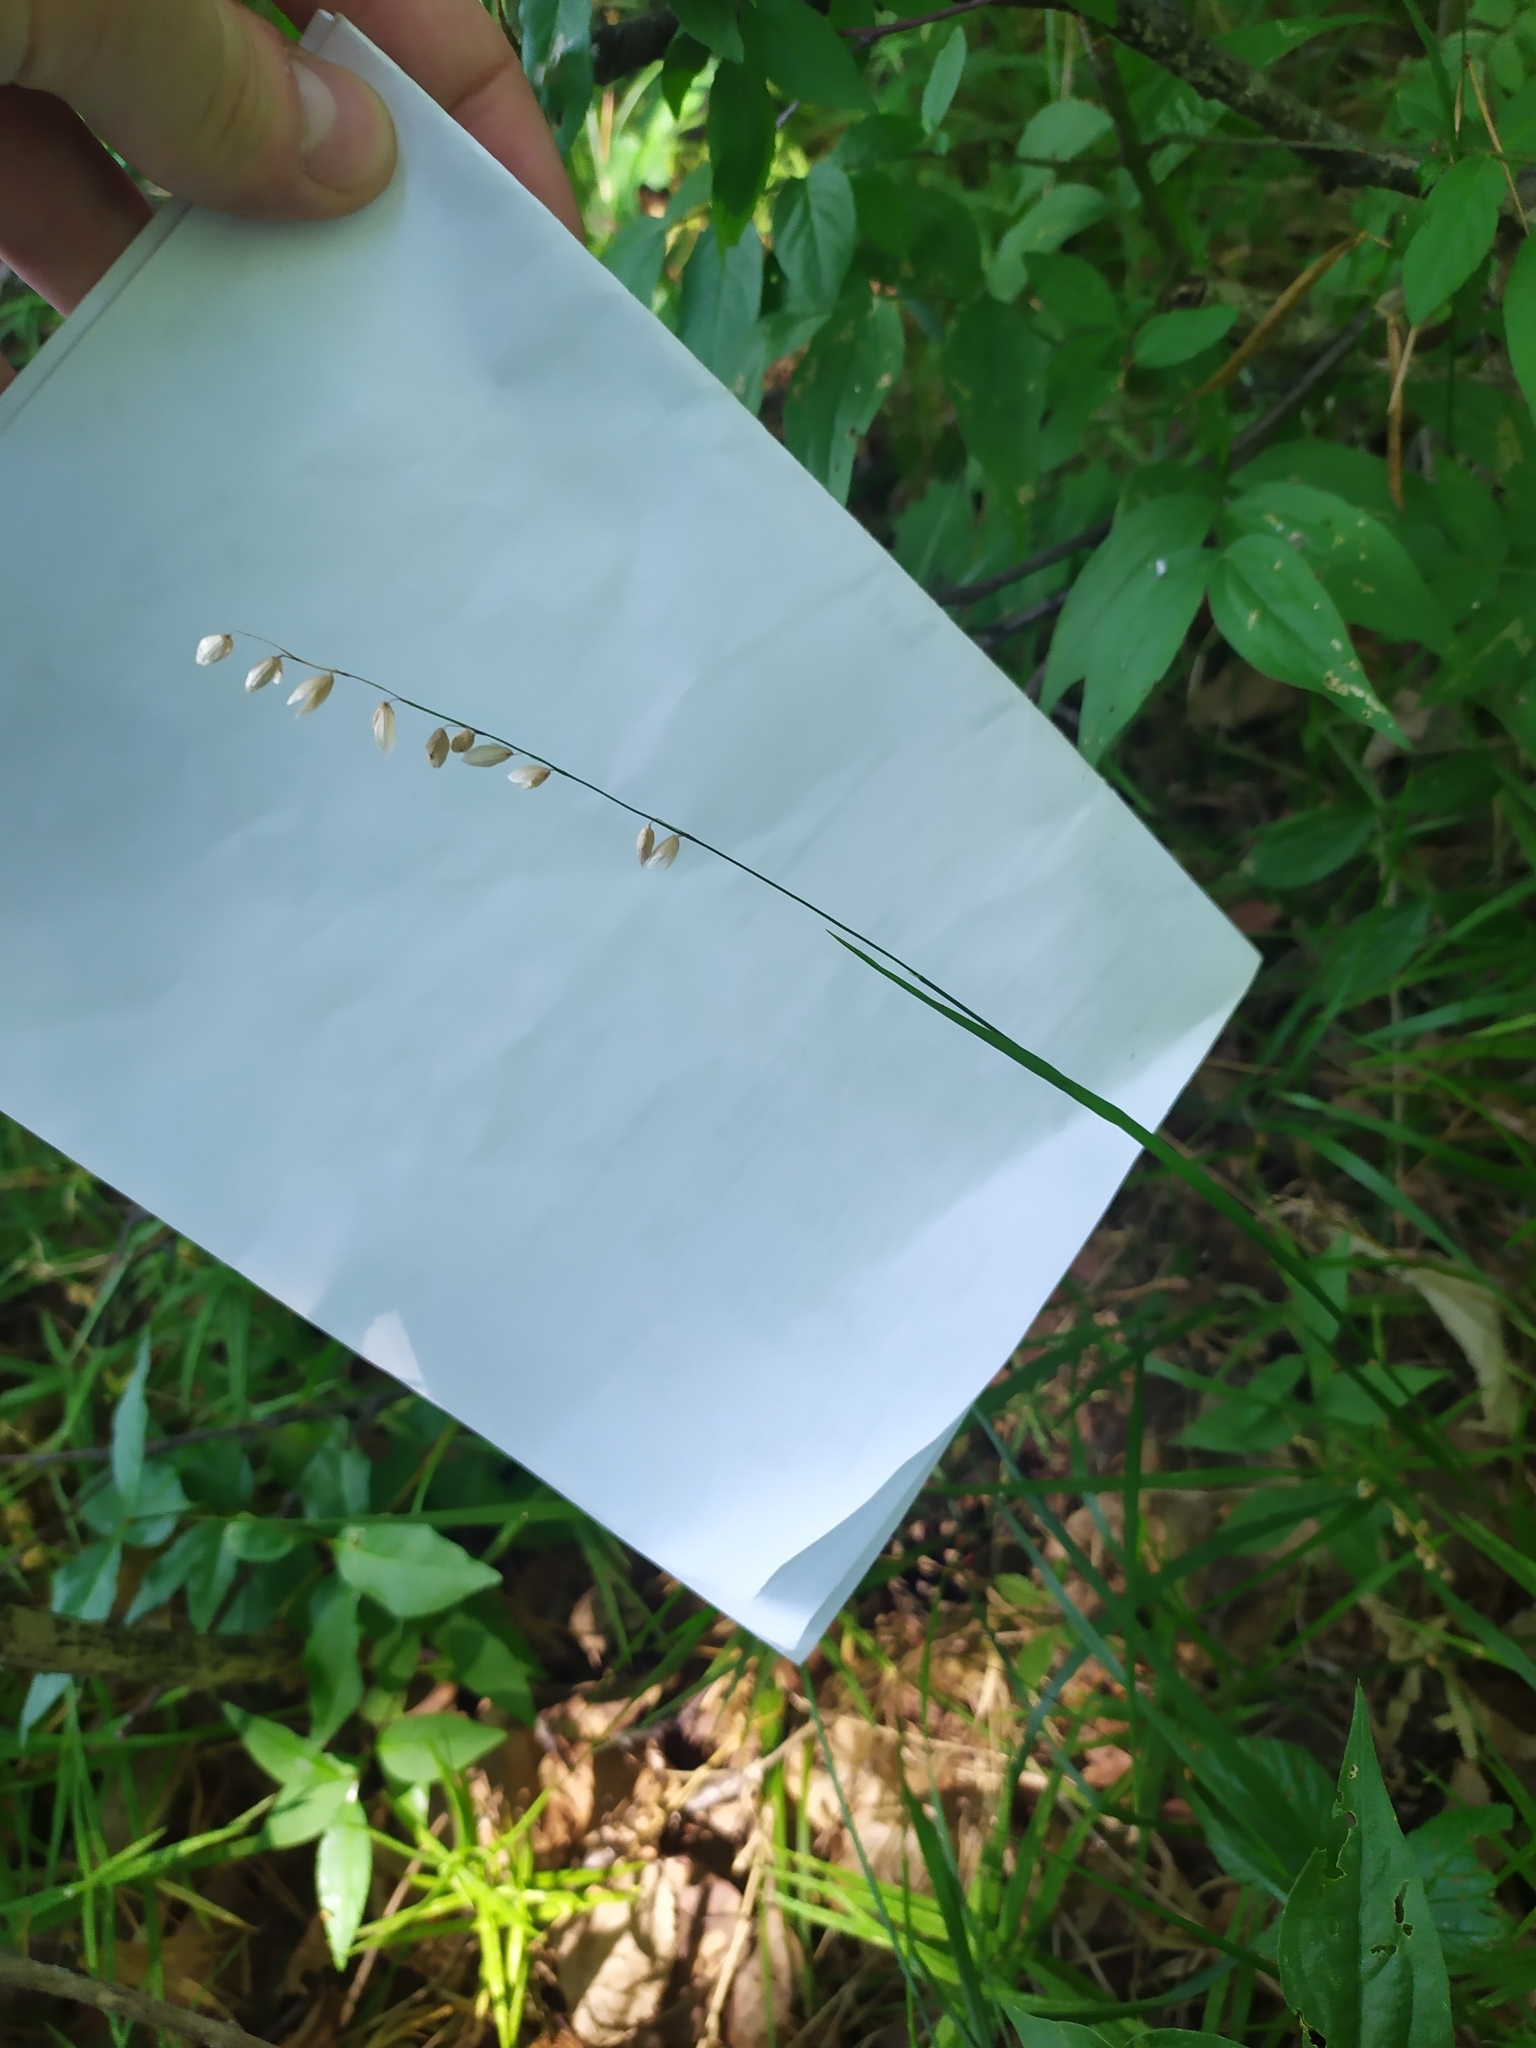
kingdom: Plantae
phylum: Tracheophyta
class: Liliopsida
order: Poales
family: Poaceae
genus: Melica
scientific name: Melica nutans
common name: Mountain melick
